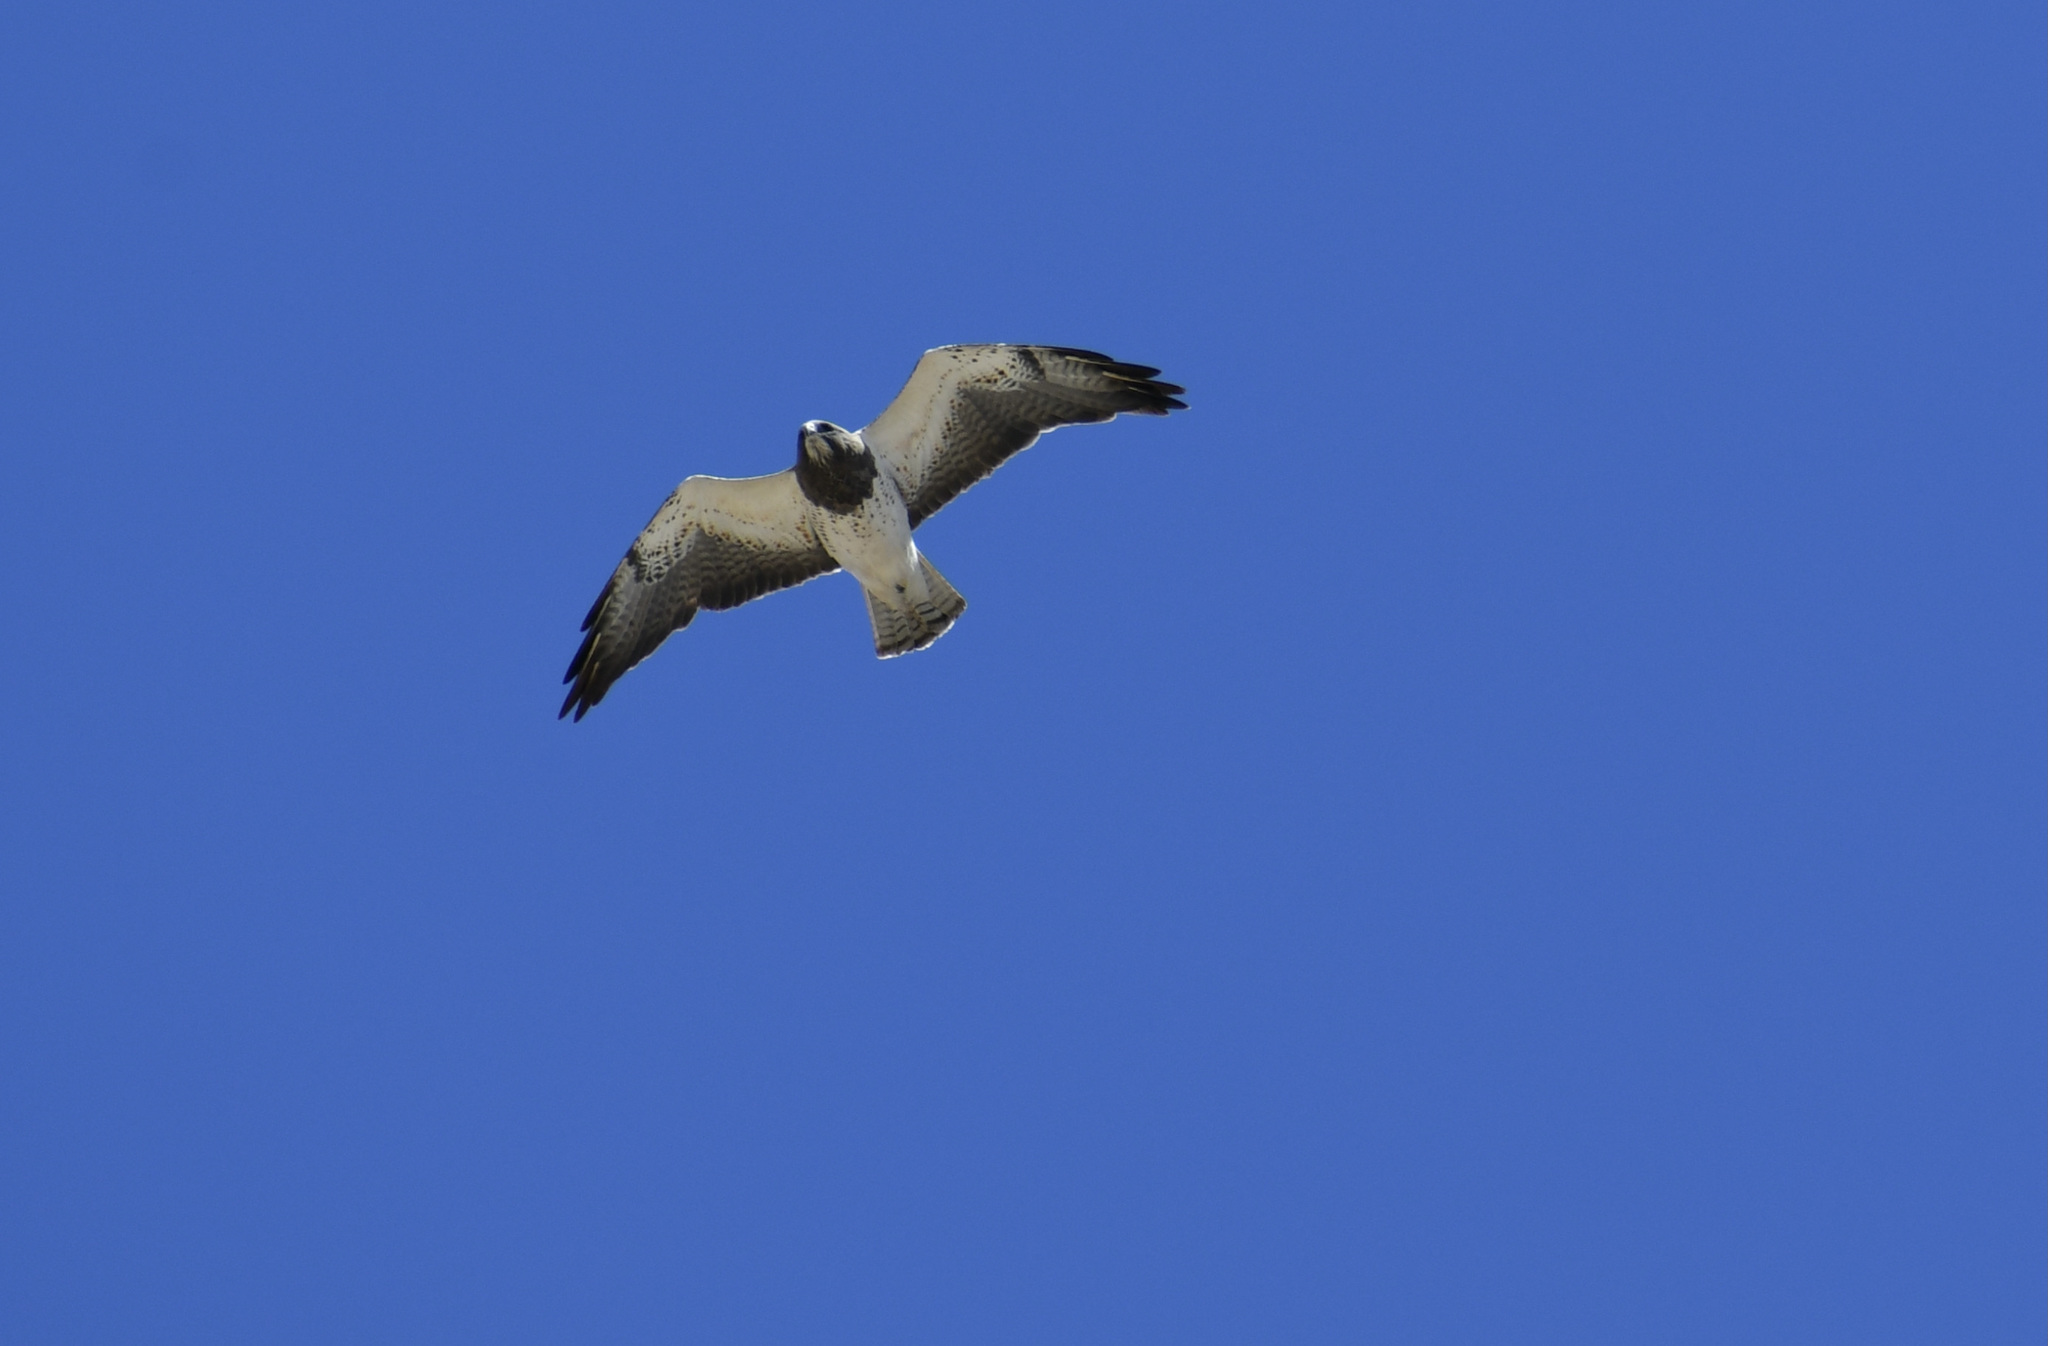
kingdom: Animalia
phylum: Chordata
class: Aves
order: Accipitriformes
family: Accipitridae
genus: Buteo
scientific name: Buteo swainsoni
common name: Swainson's hawk
